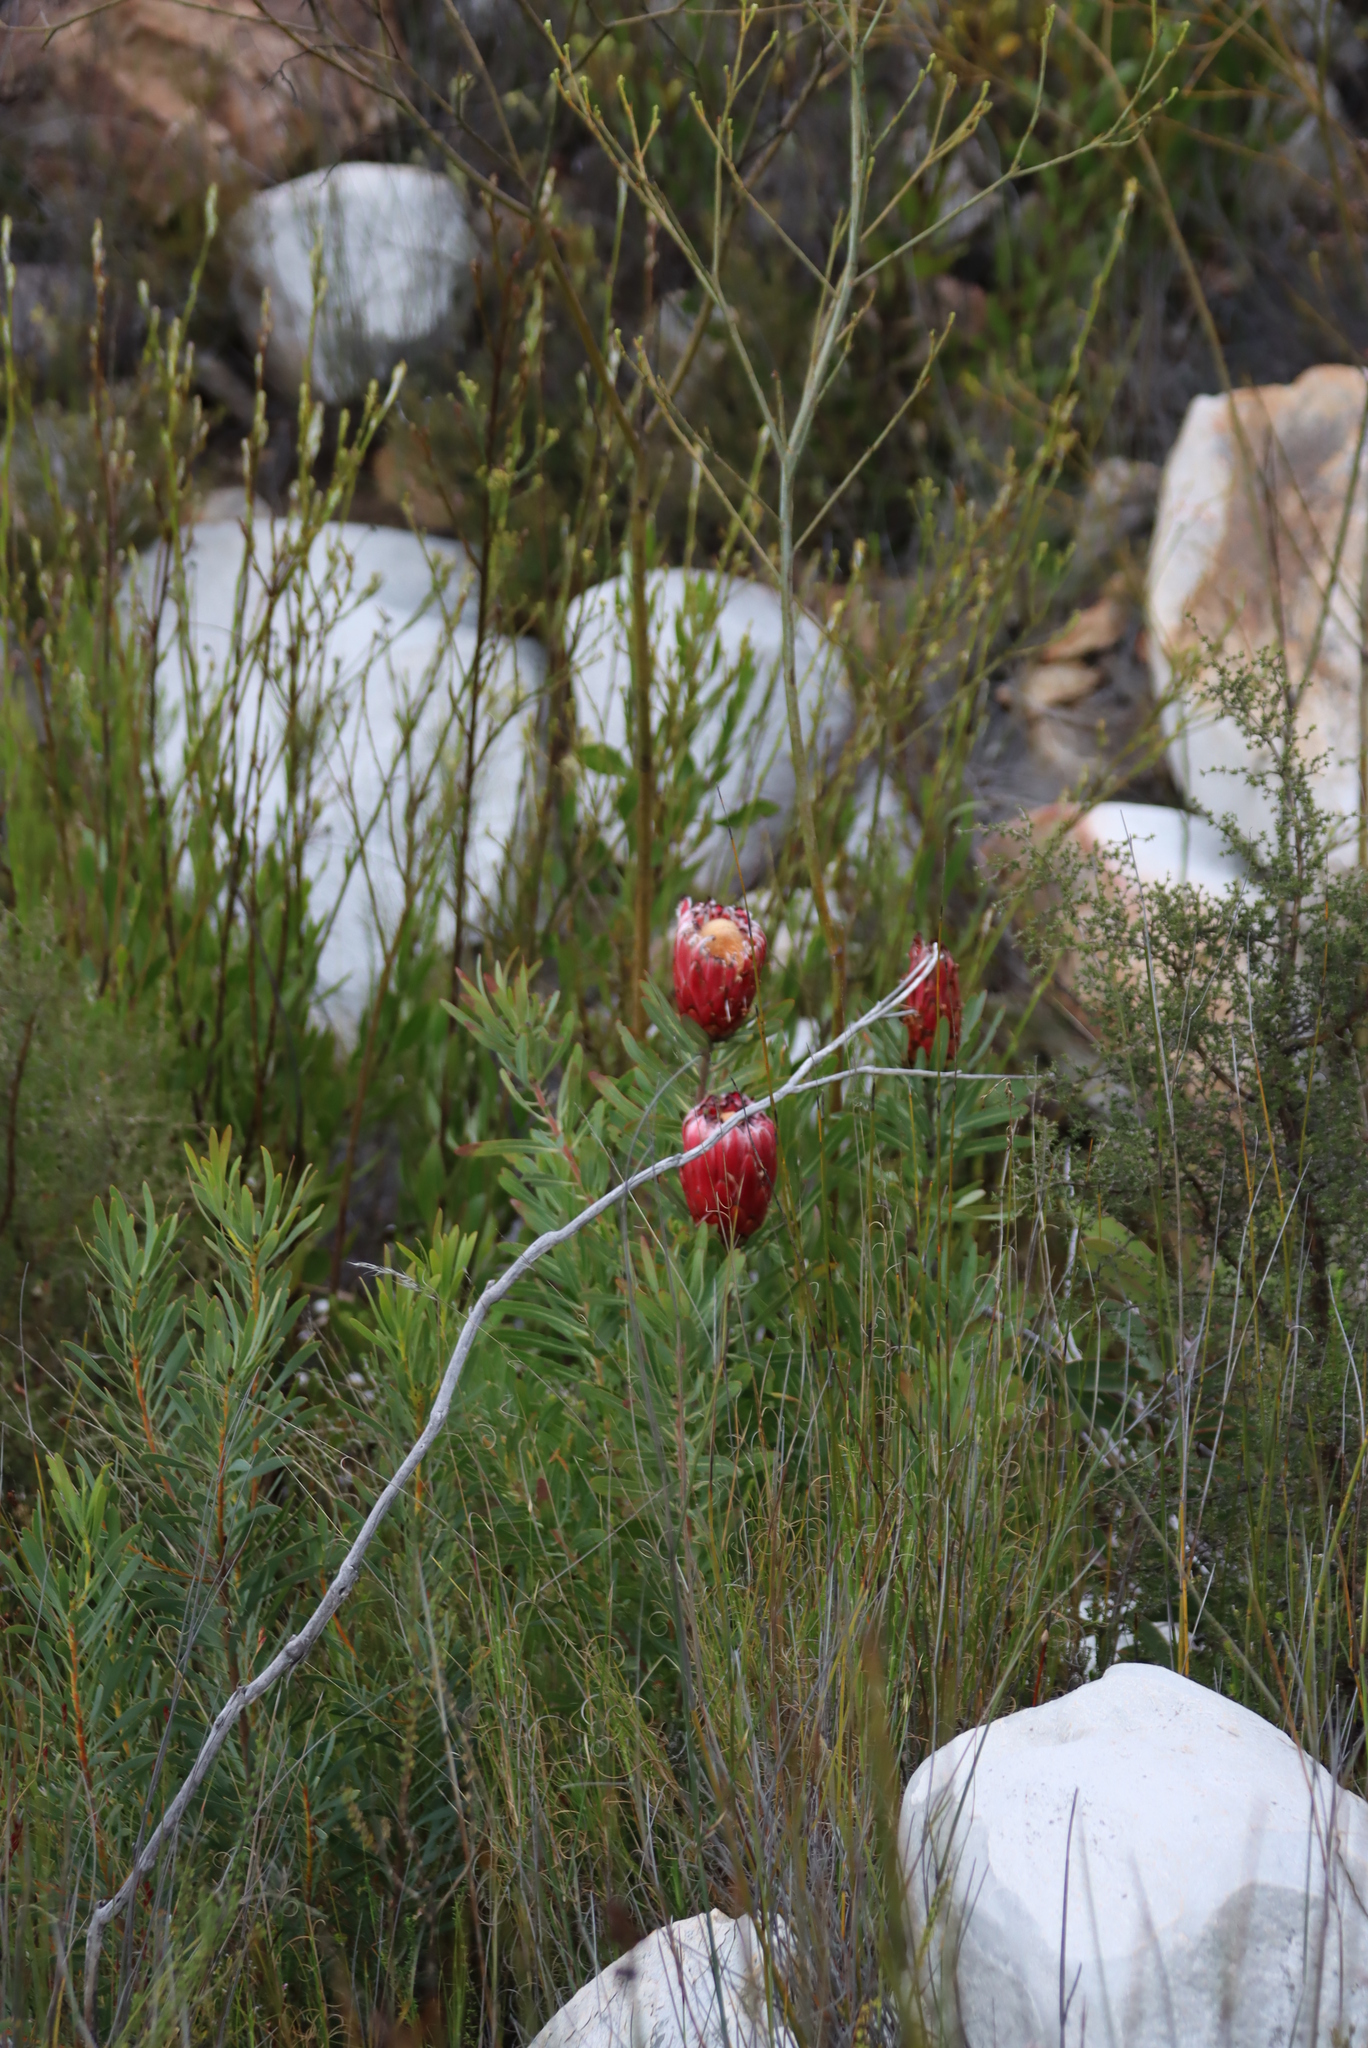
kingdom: Plantae
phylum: Tracheophyta
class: Magnoliopsida
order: Proteales
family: Proteaceae
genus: Protea
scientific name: Protea neriifolia
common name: Blue sugarbush
